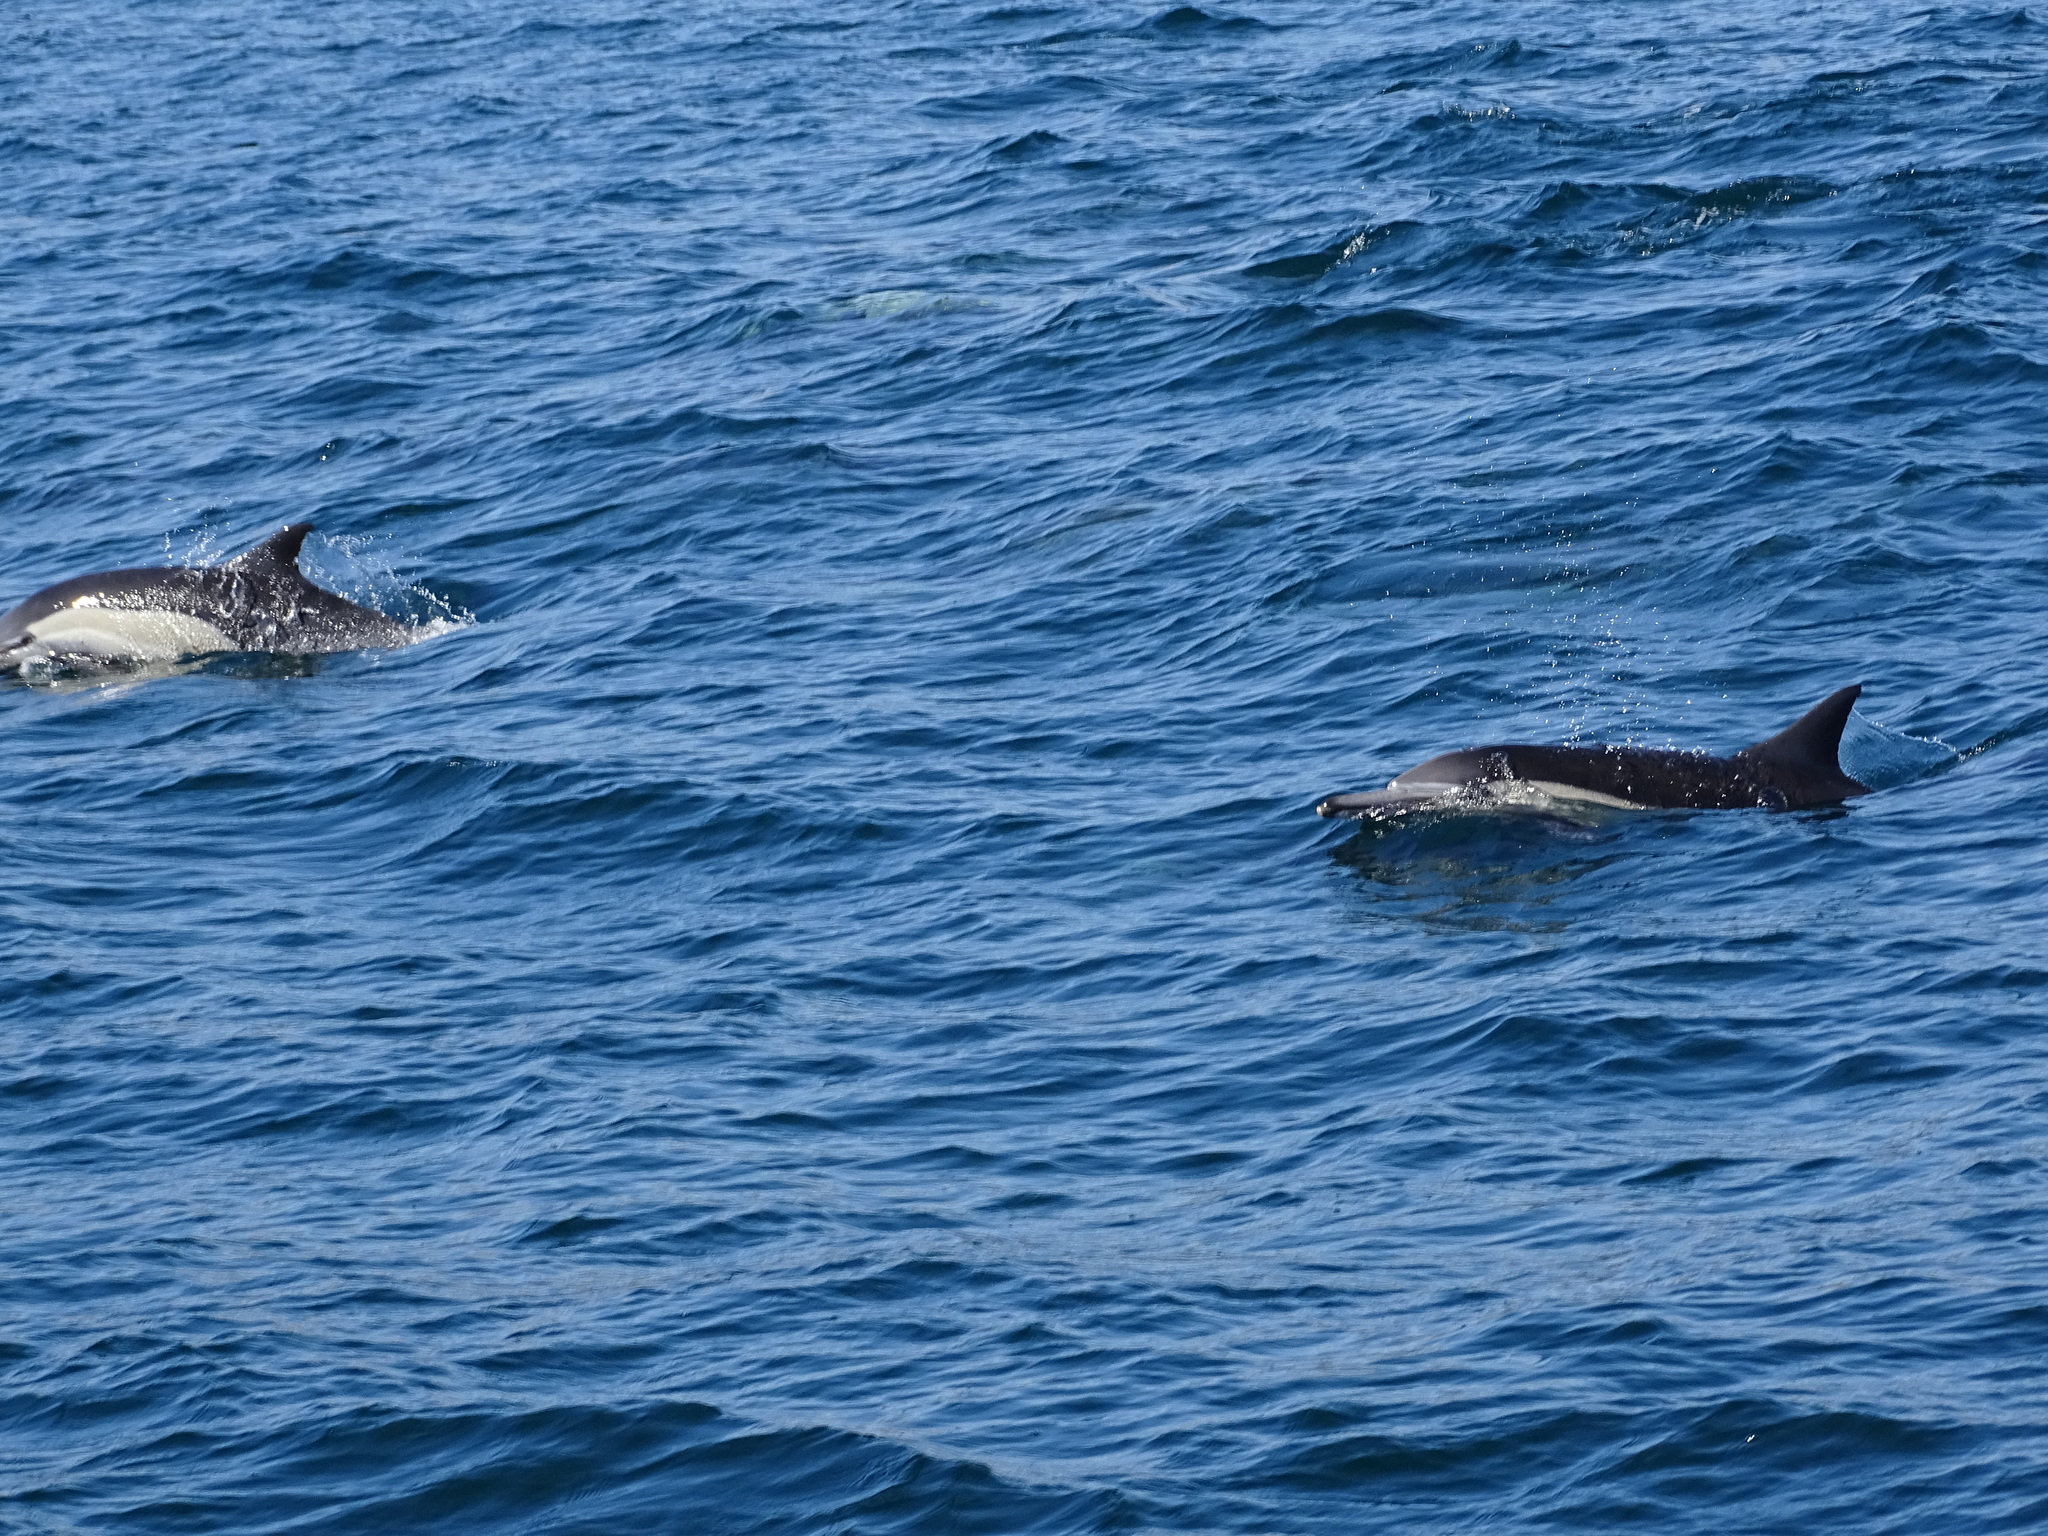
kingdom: Animalia
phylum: Chordata
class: Mammalia
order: Cetacea
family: Delphinidae
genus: Delphinus
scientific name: Delphinus delphis
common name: Common dolphin
